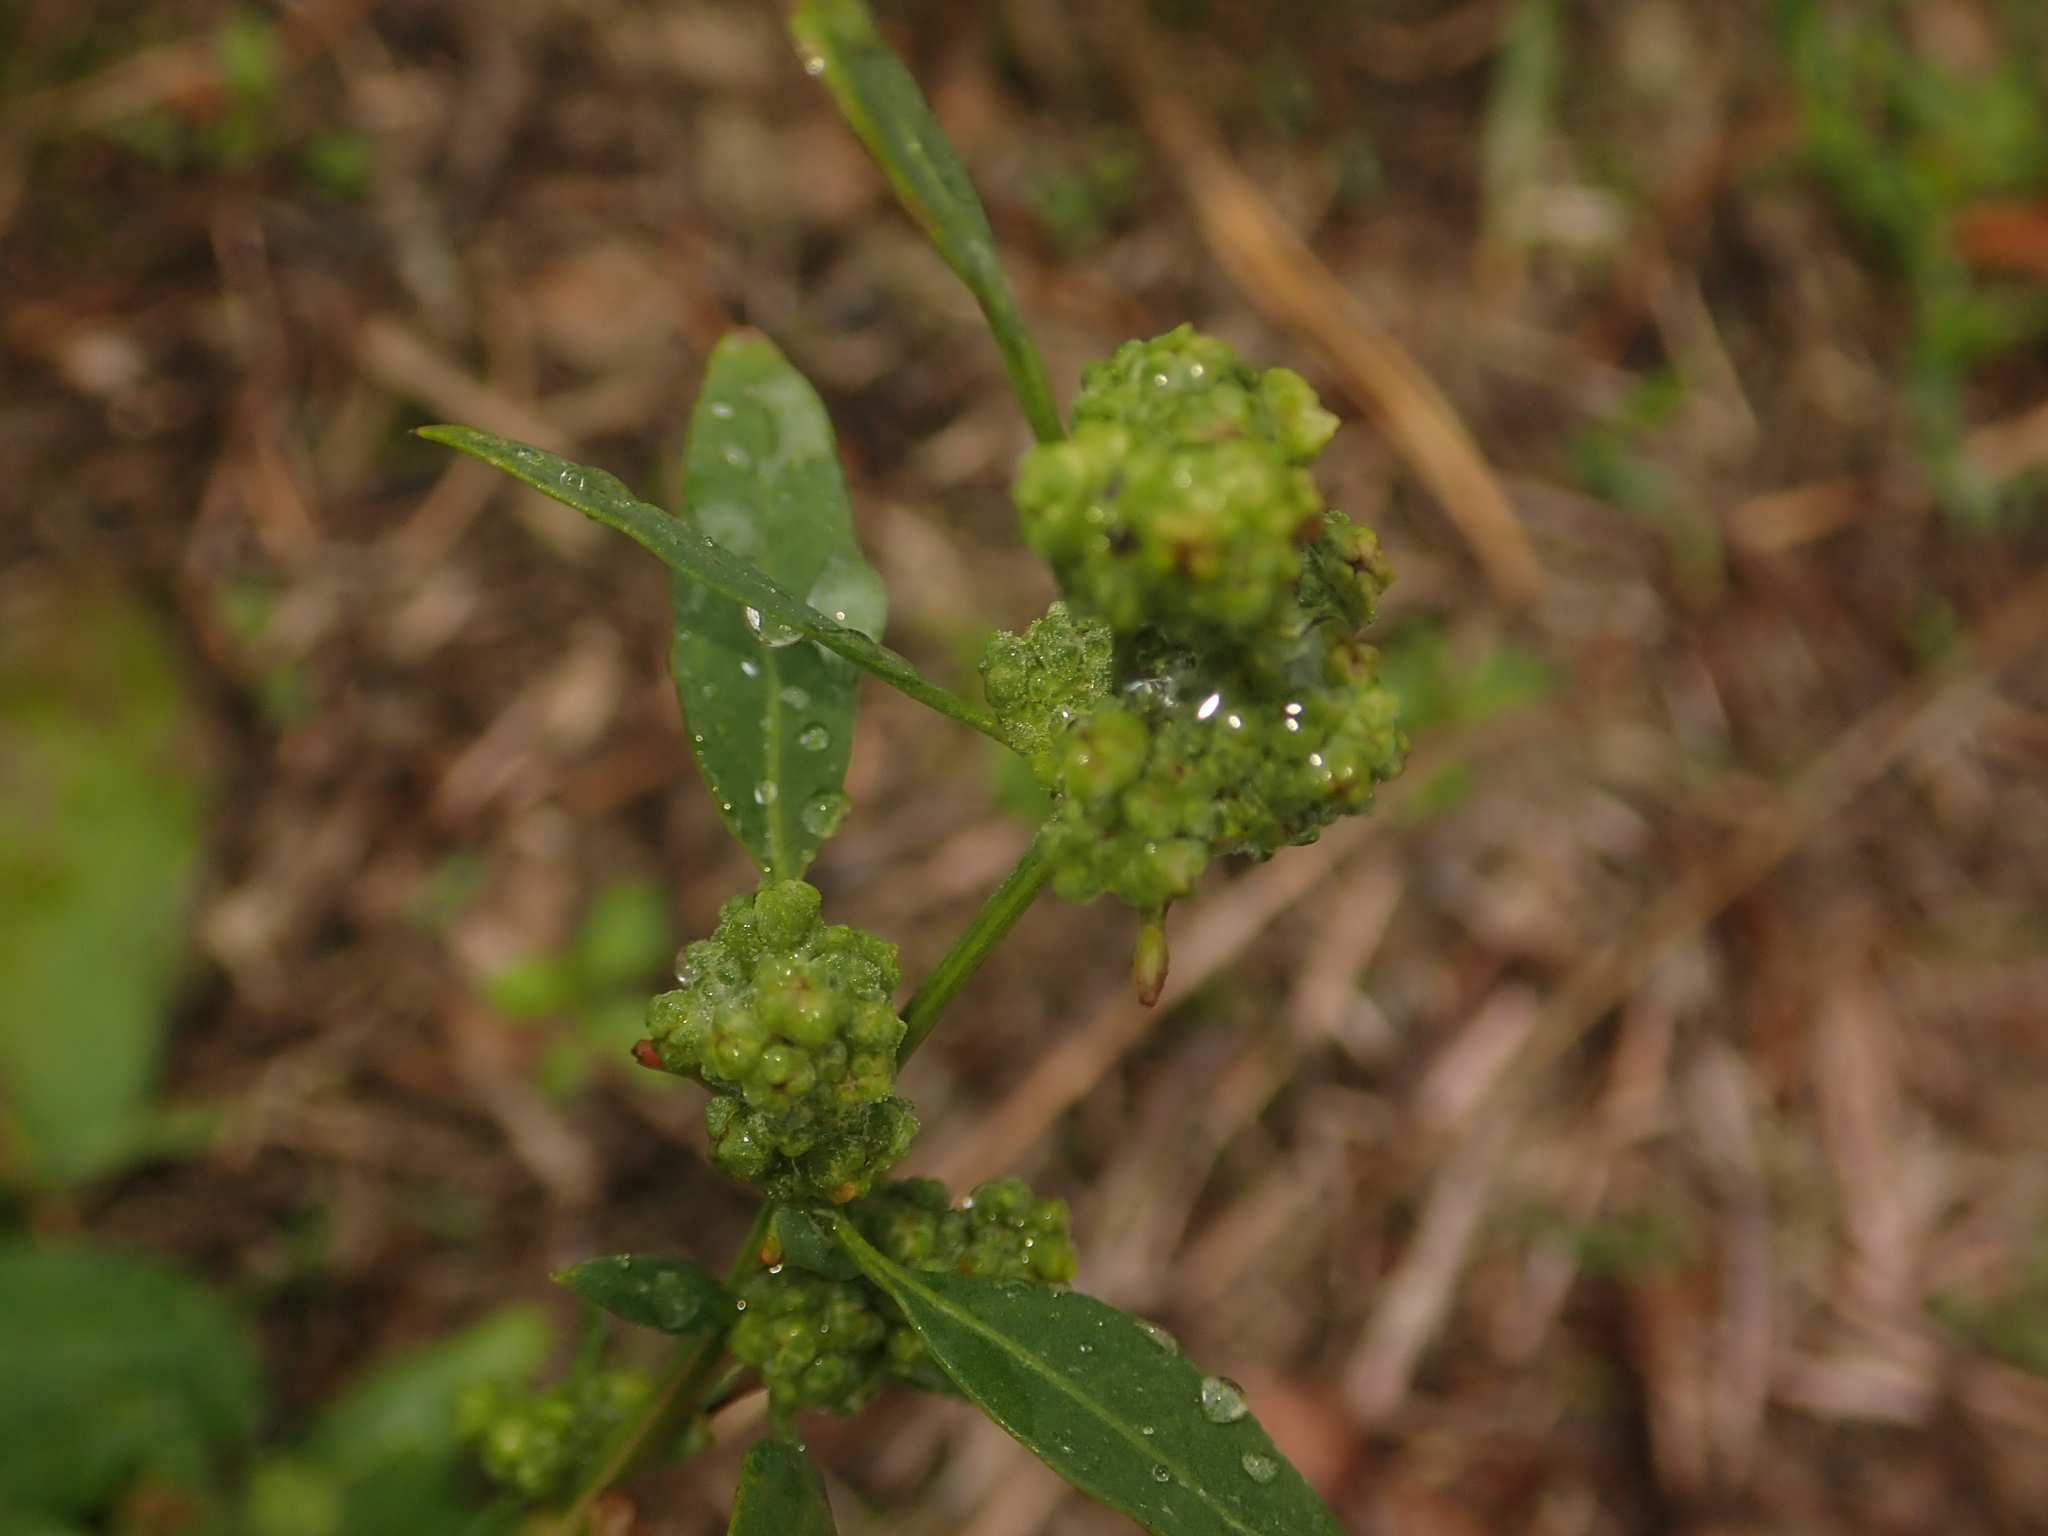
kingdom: Plantae
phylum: Tracheophyta
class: Magnoliopsida
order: Caryophyllales
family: Amaranthaceae
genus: Chenopodium
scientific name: Chenopodium album
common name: Fat-hen
